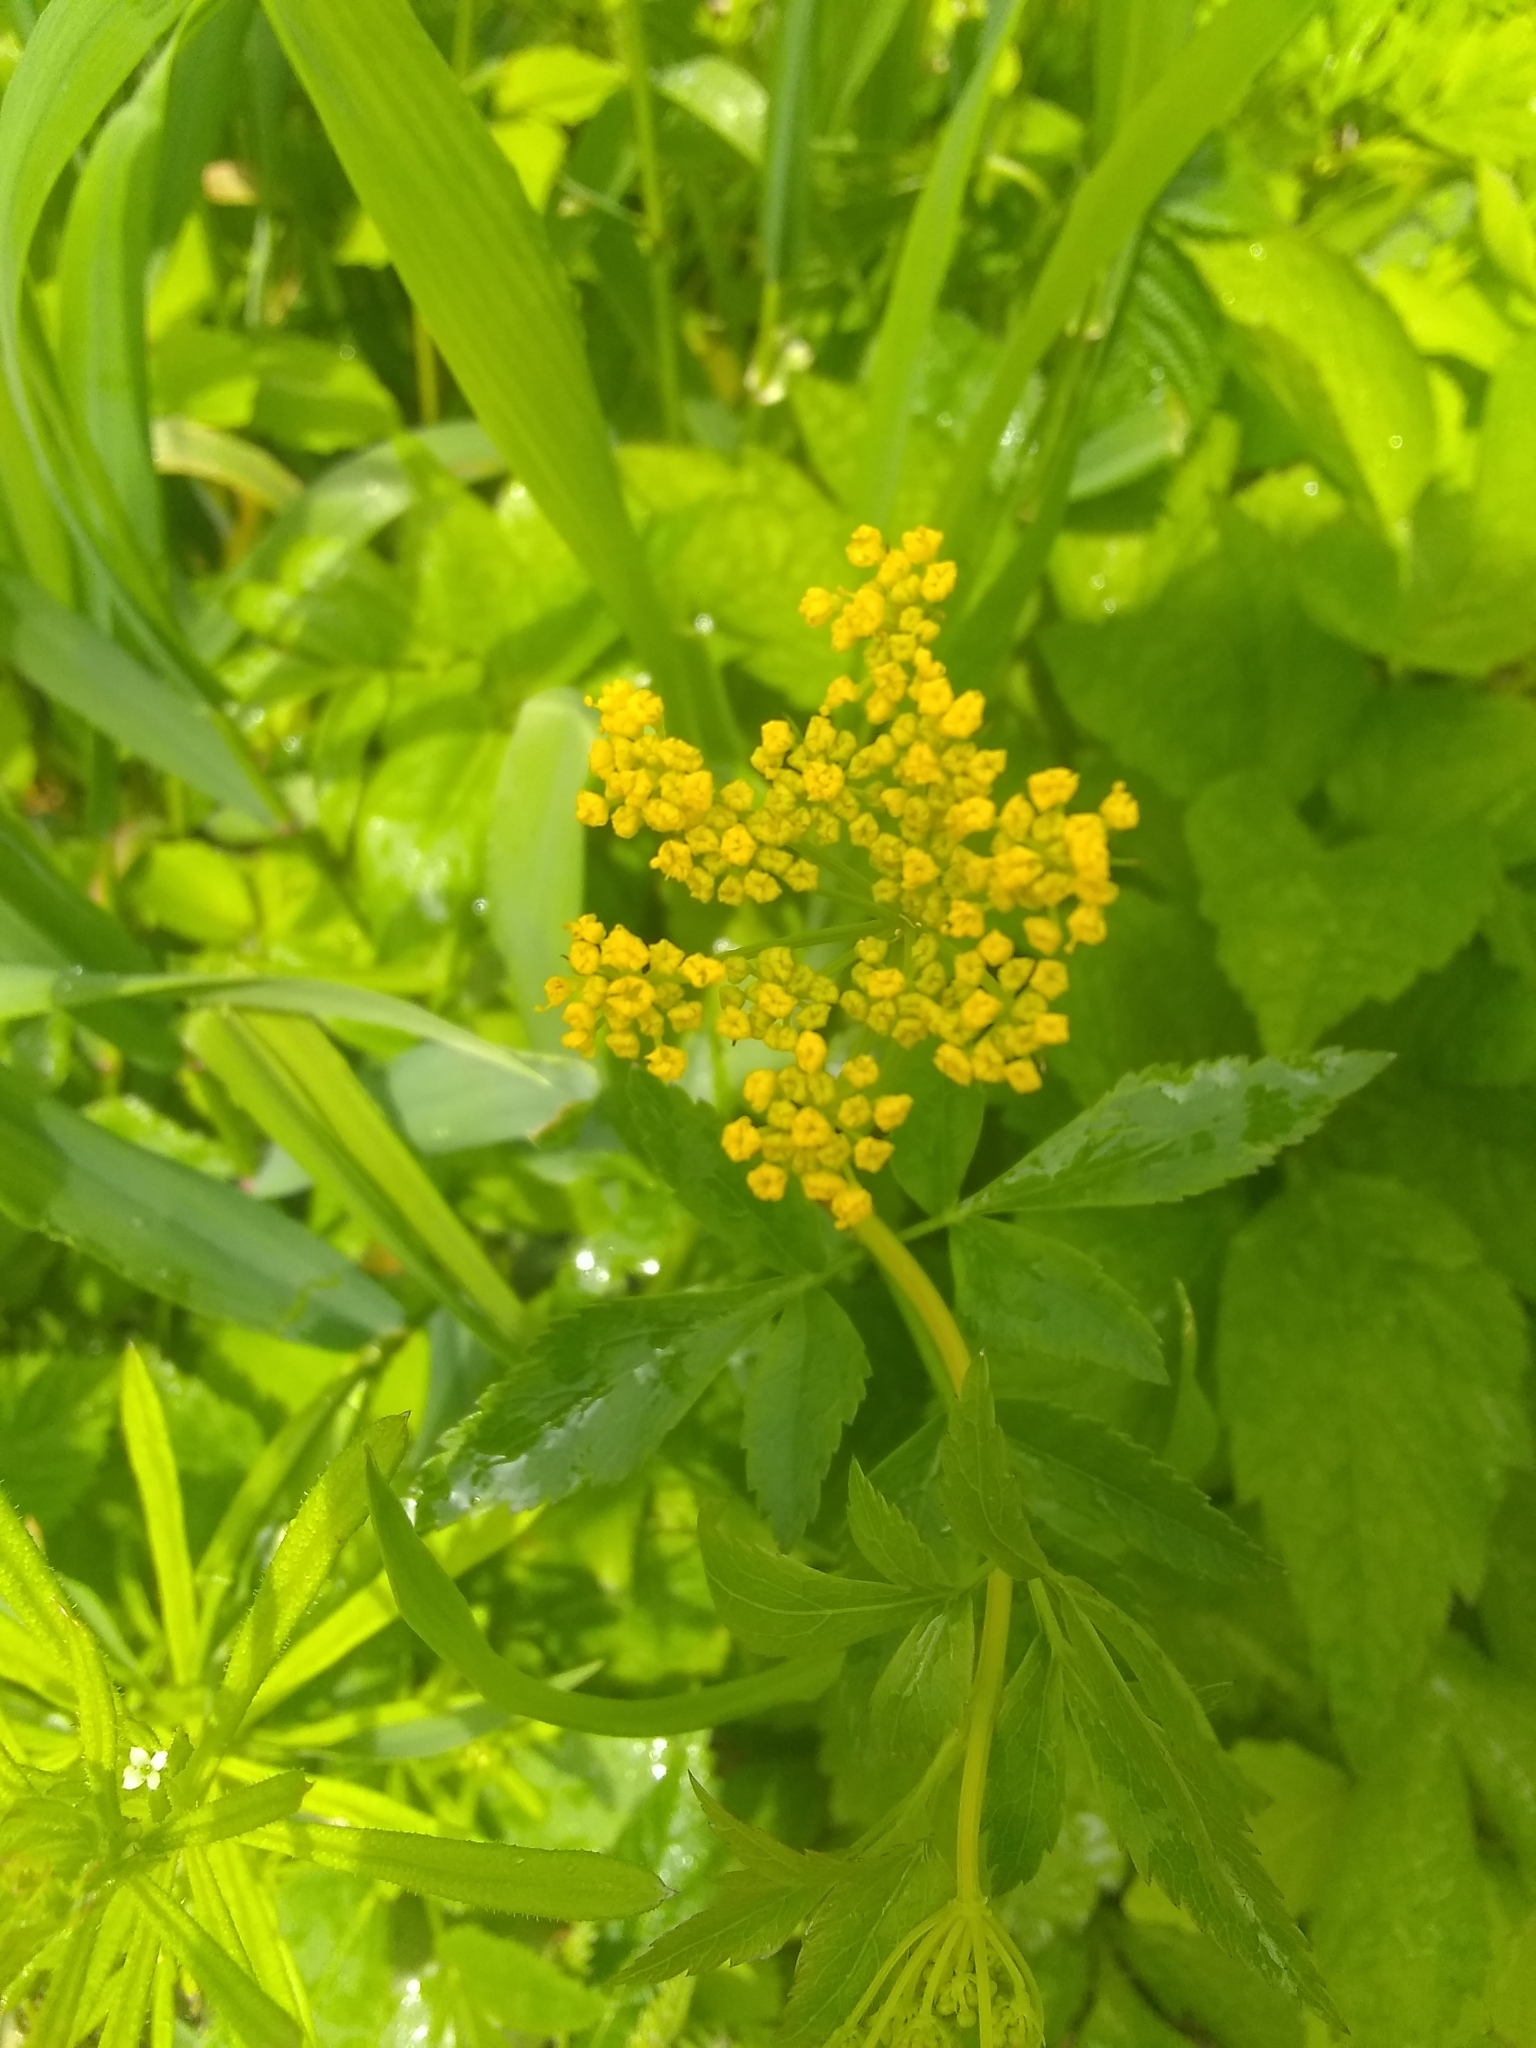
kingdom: Plantae
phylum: Tracheophyta
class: Magnoliopsida
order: Apiales
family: Apiaceae
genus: Zizia
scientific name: Zizia aurea
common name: Golden alexanders
